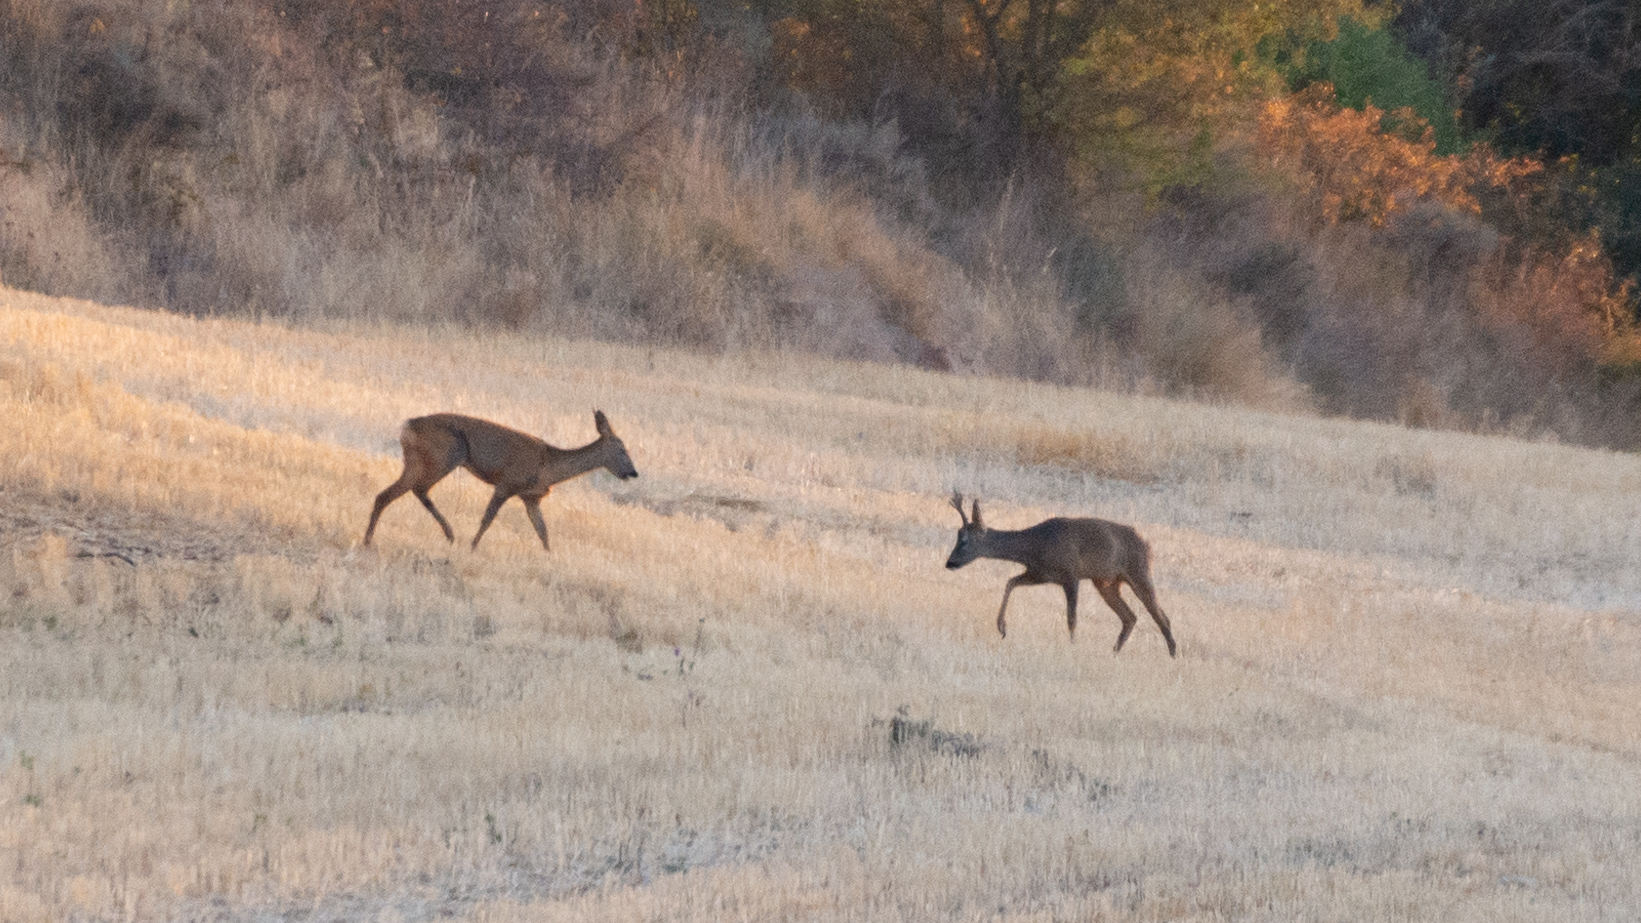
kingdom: Animalia
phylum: Chordata
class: Mammalia
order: Artiodactyla
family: Cervidae
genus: Capreolus
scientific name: Capreolus capreolus
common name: Western roe deer
